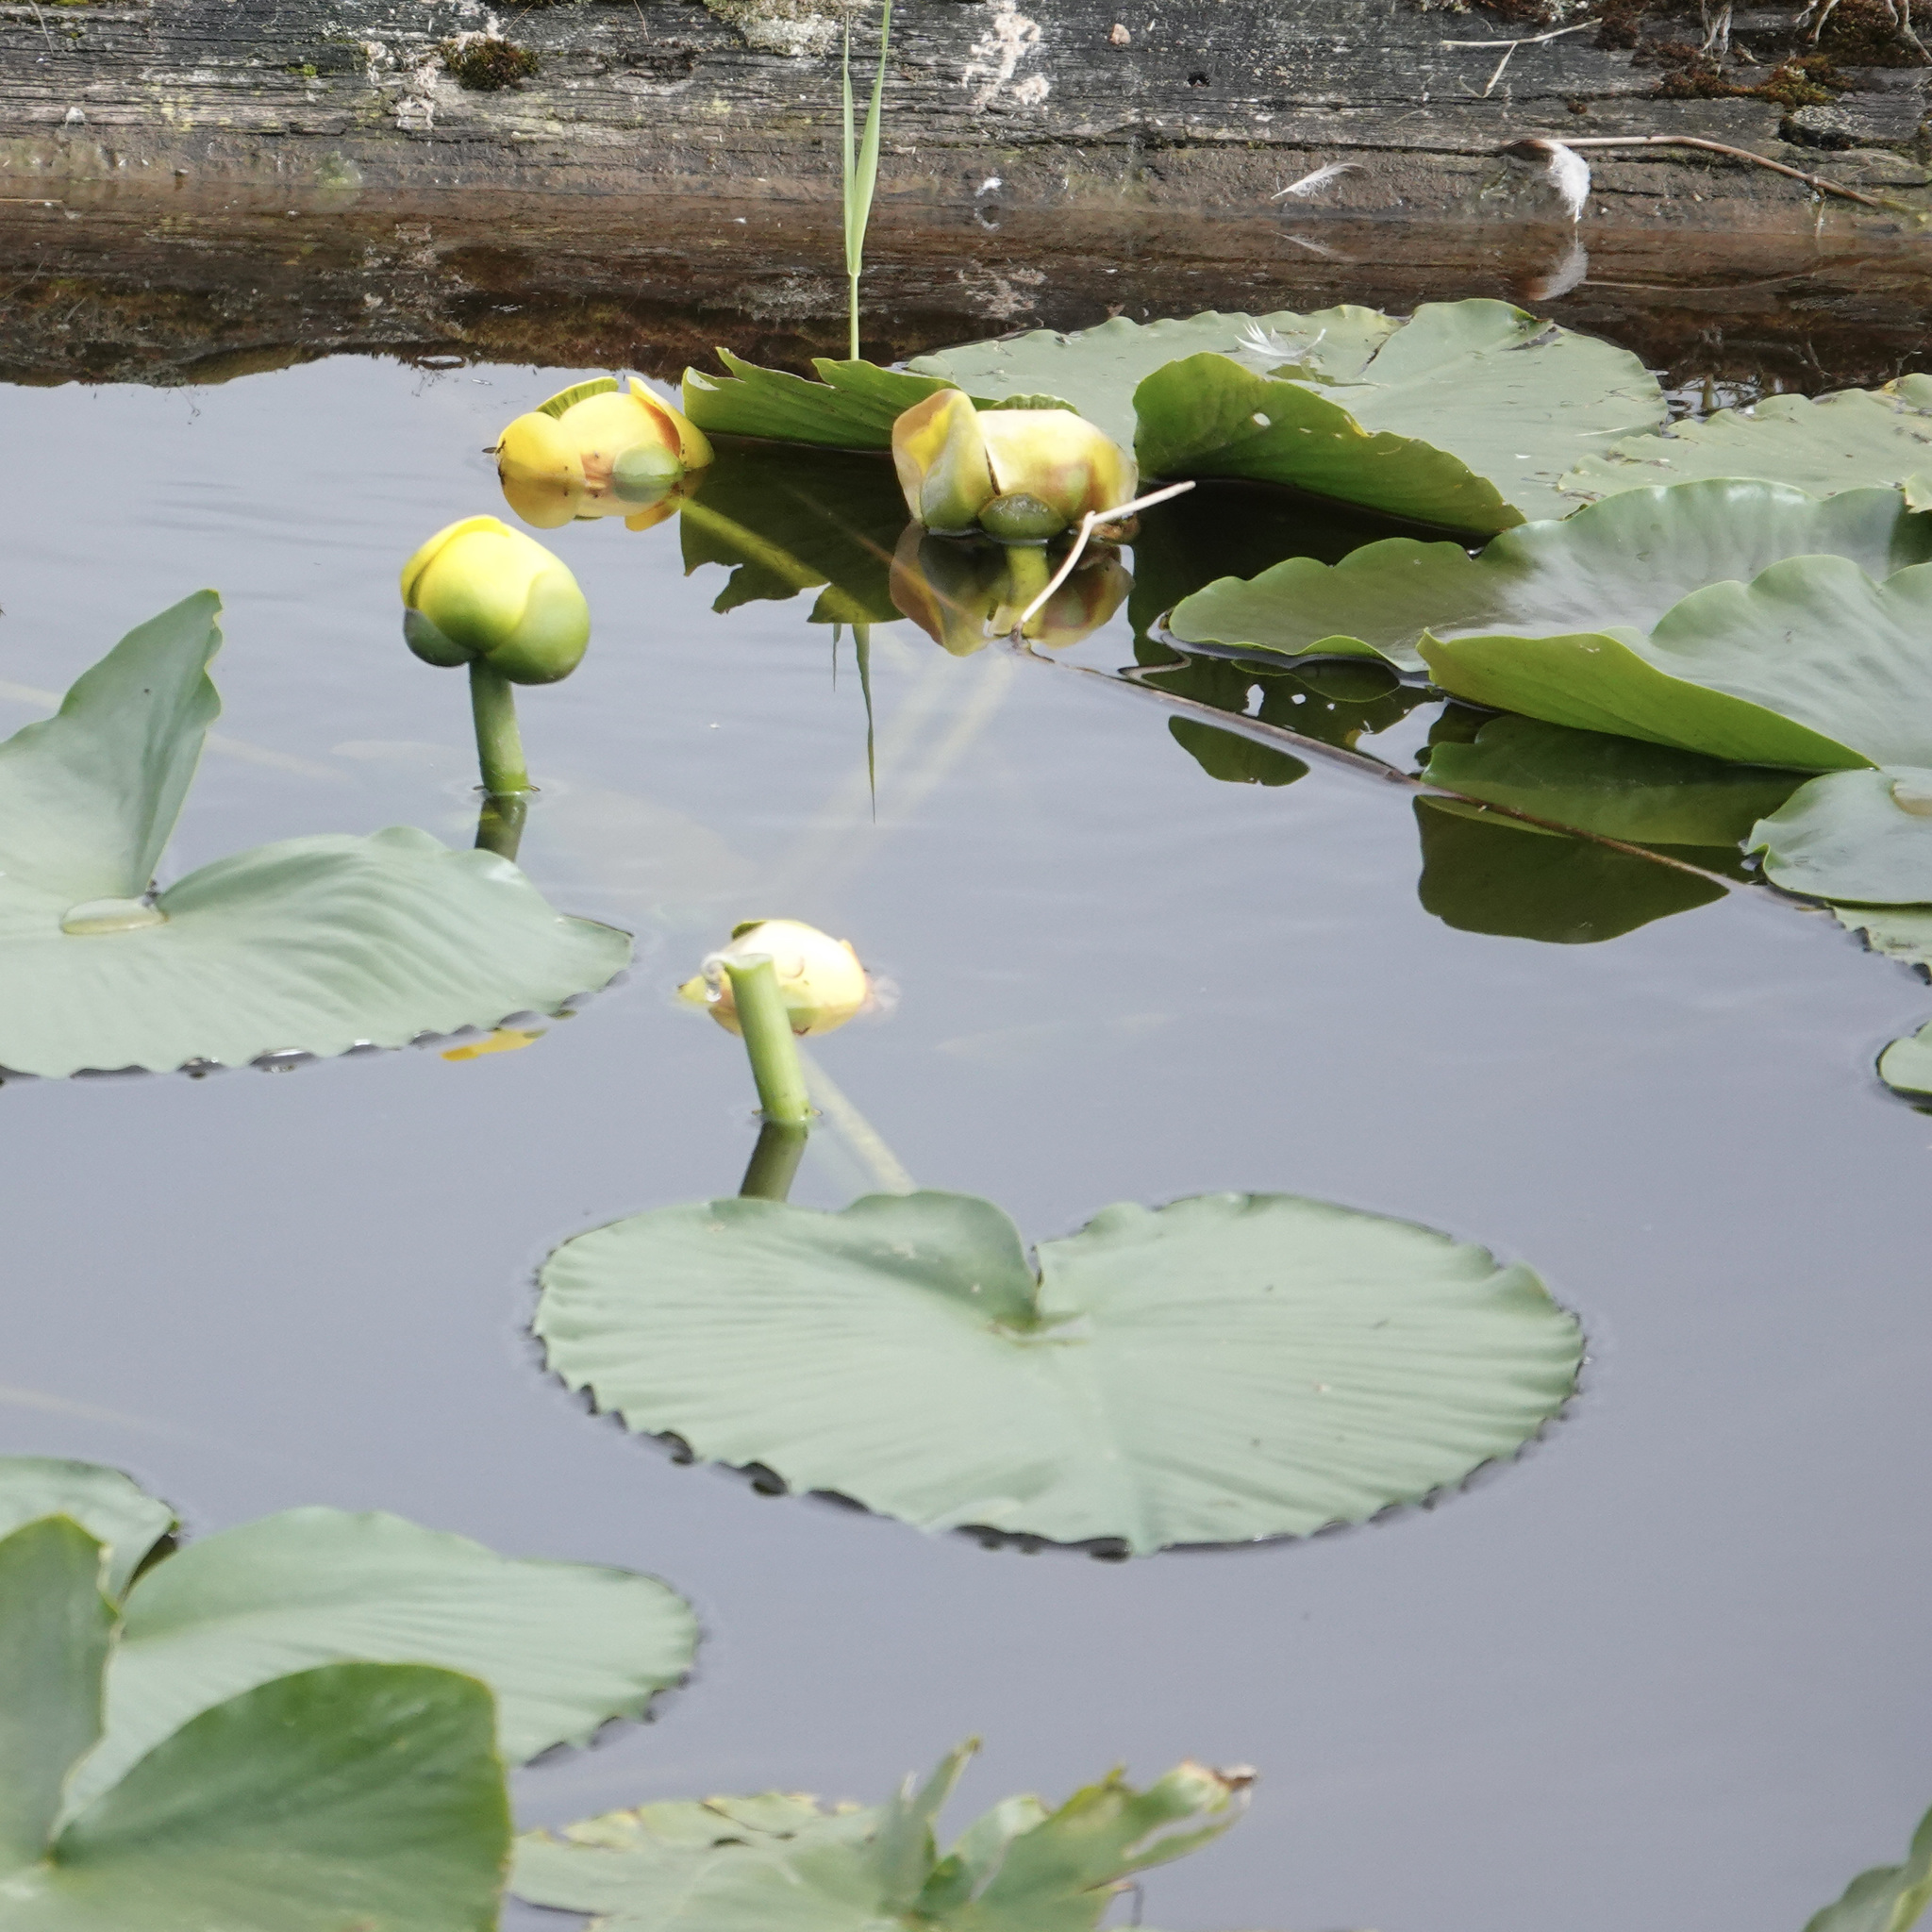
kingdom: Plantae
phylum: Tracheophyta
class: Magnoliopsida
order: Nymphaeales
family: Nymphaeaceae
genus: Nuphar
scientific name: Nuphar polysepala
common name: Rocky mountain cow-lily
